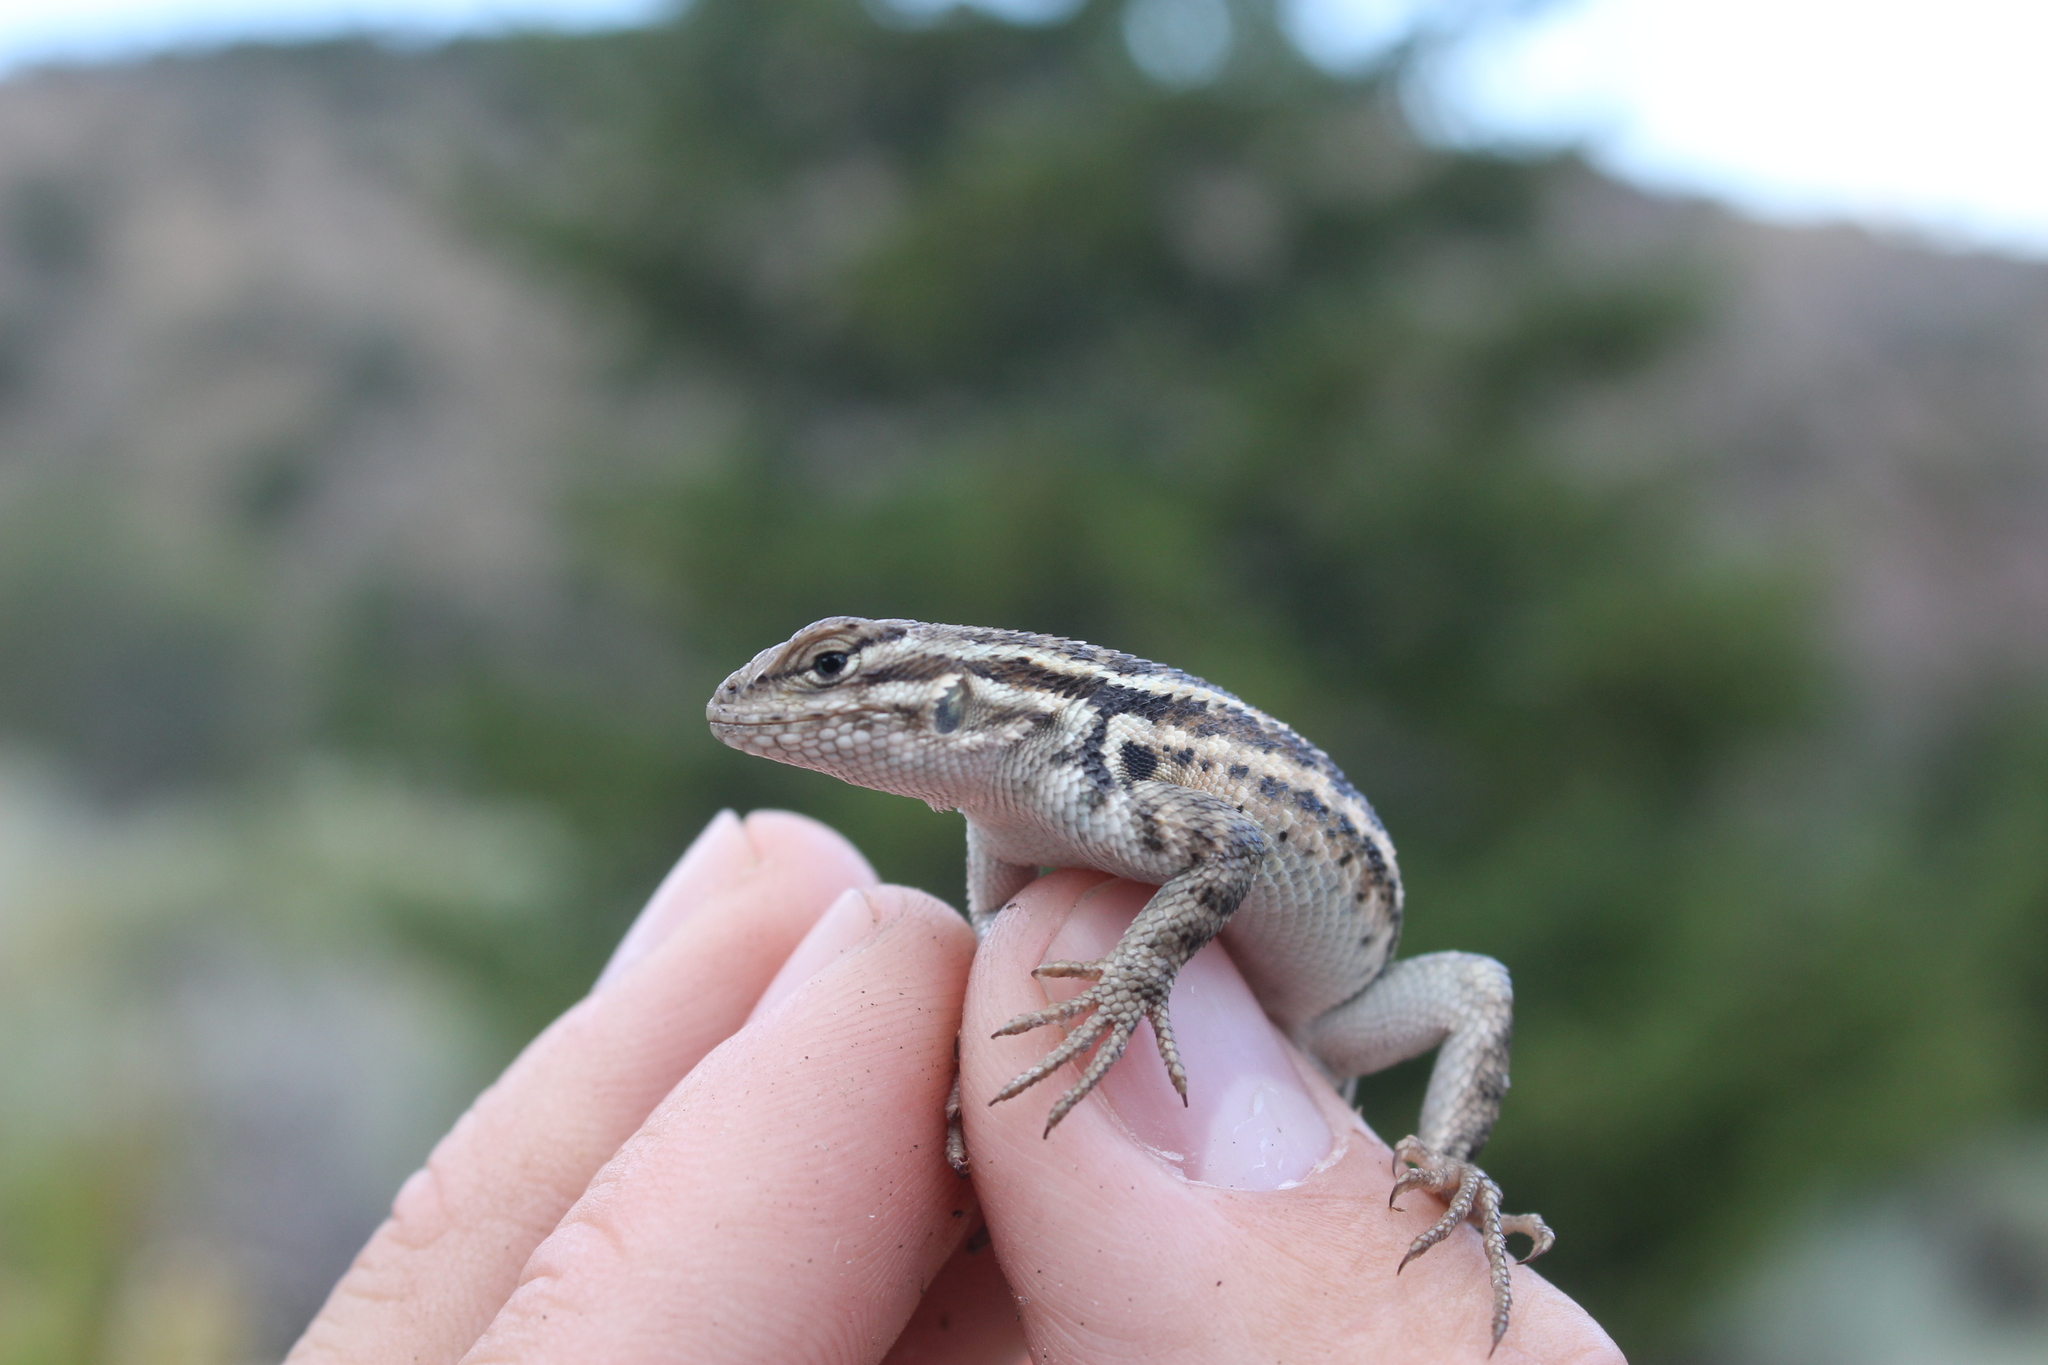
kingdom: Animalia
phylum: Chordata
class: Squamata
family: Phrynosomatidae
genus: Sceloporus
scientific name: Sceloporus graciosus
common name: Sagebrush lizard
